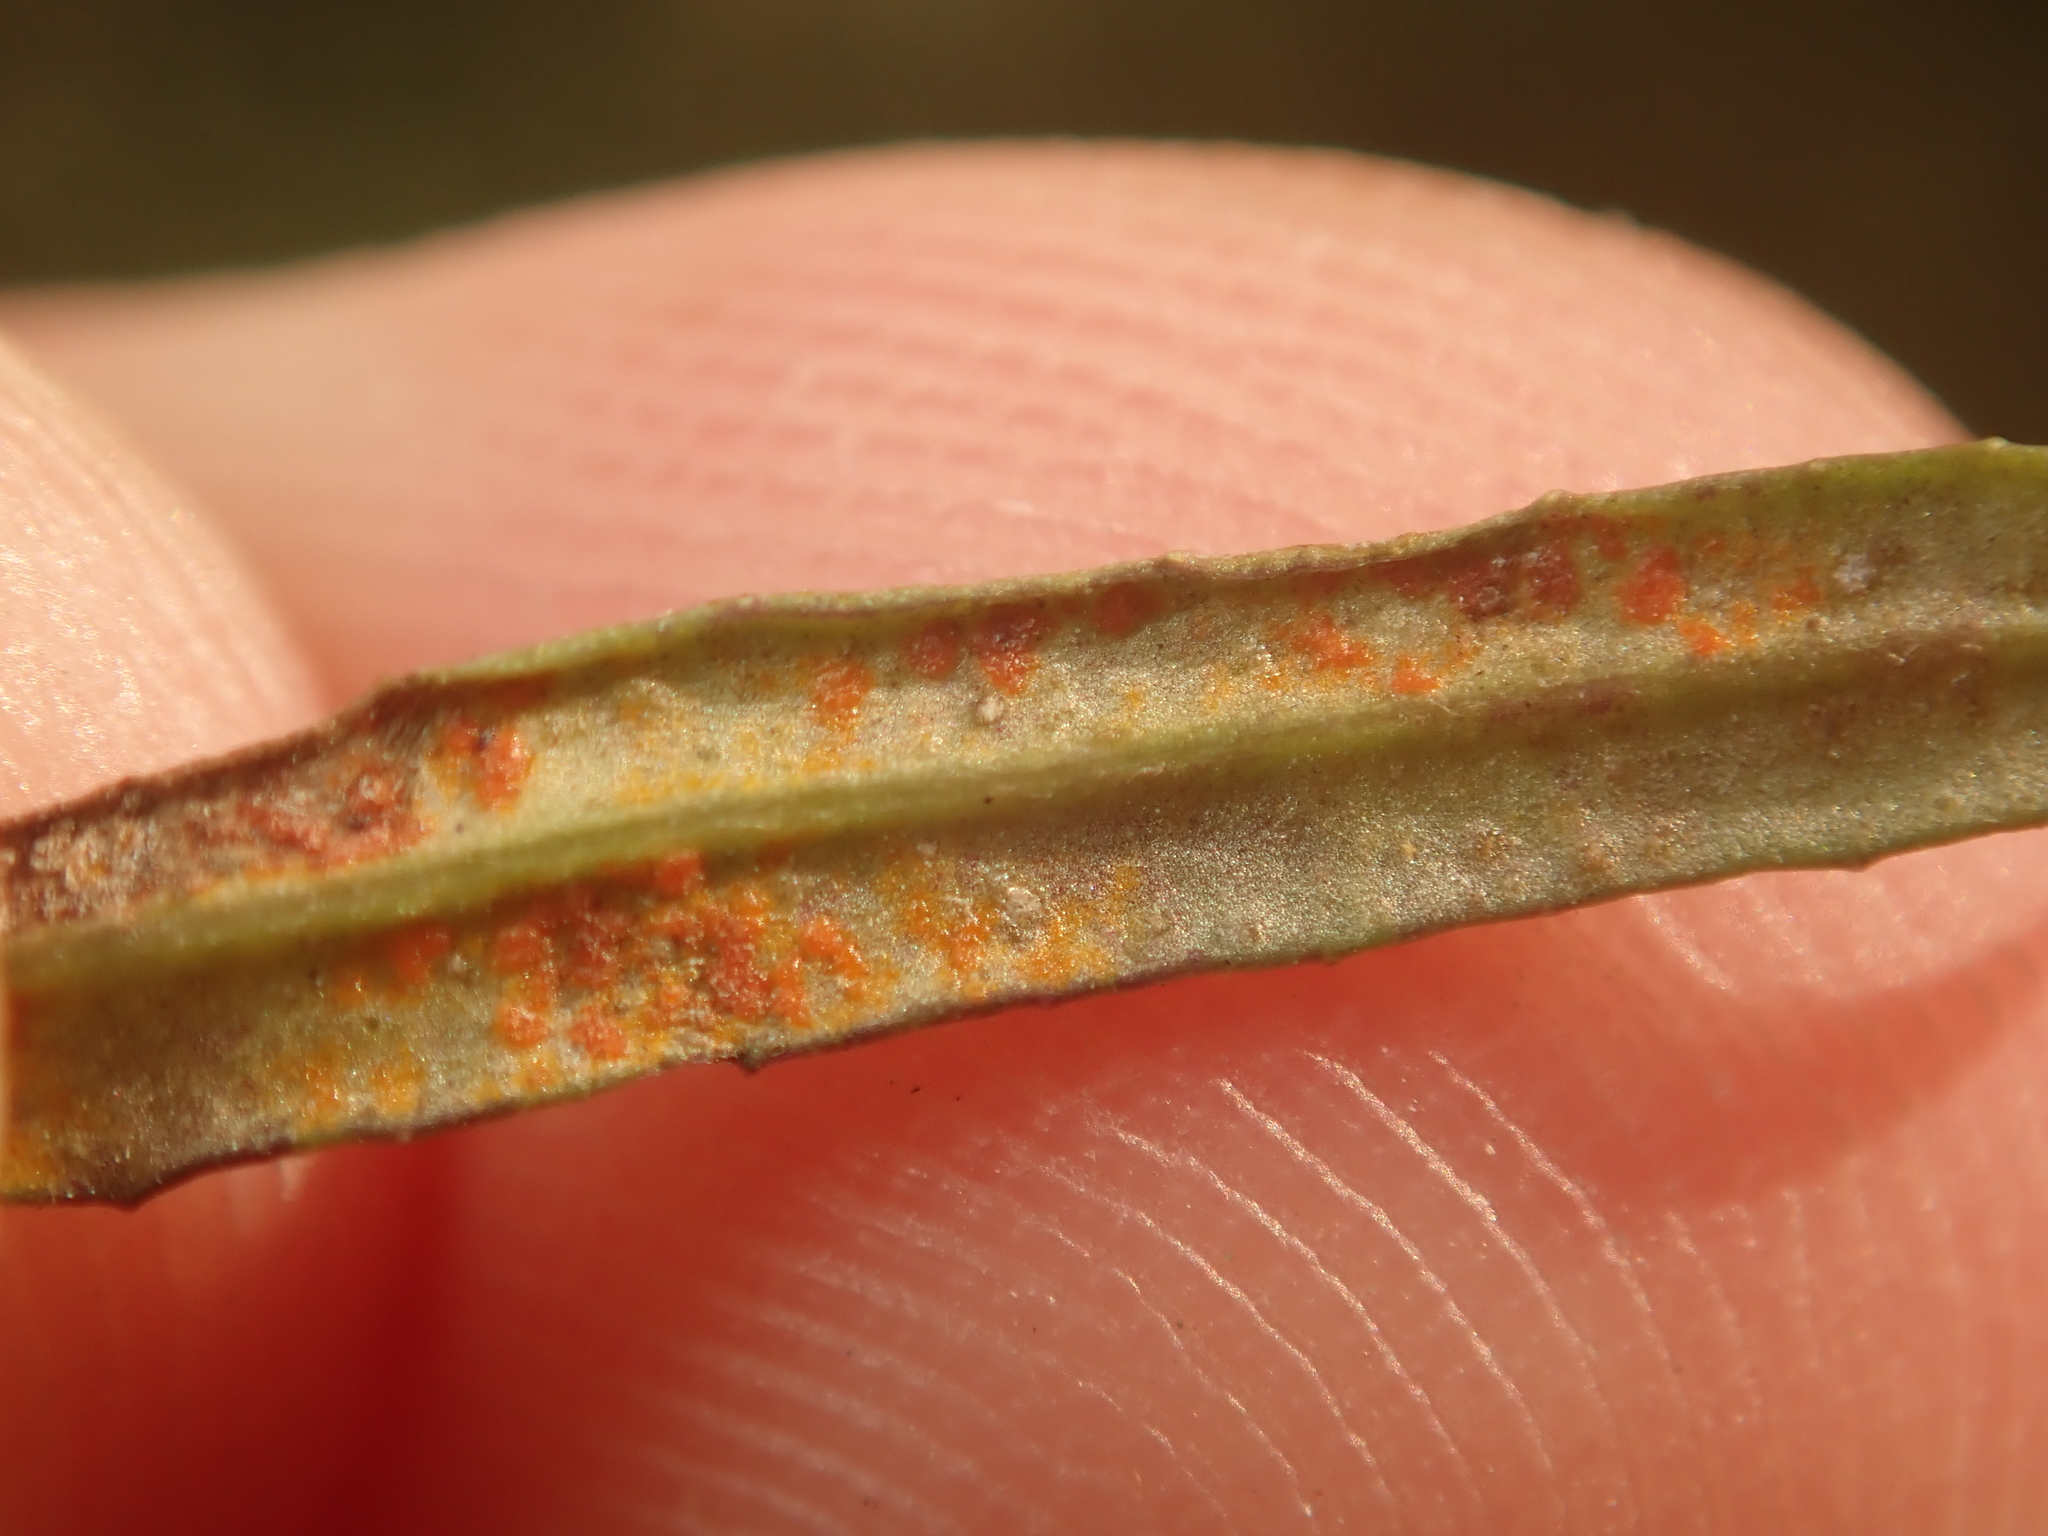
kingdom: Fungi
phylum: Basidiomycota
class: Pucciniomycetes
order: Pucciniales
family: Coleosporiaceae
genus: Coleosporium
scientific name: Coleosporium senecionis
